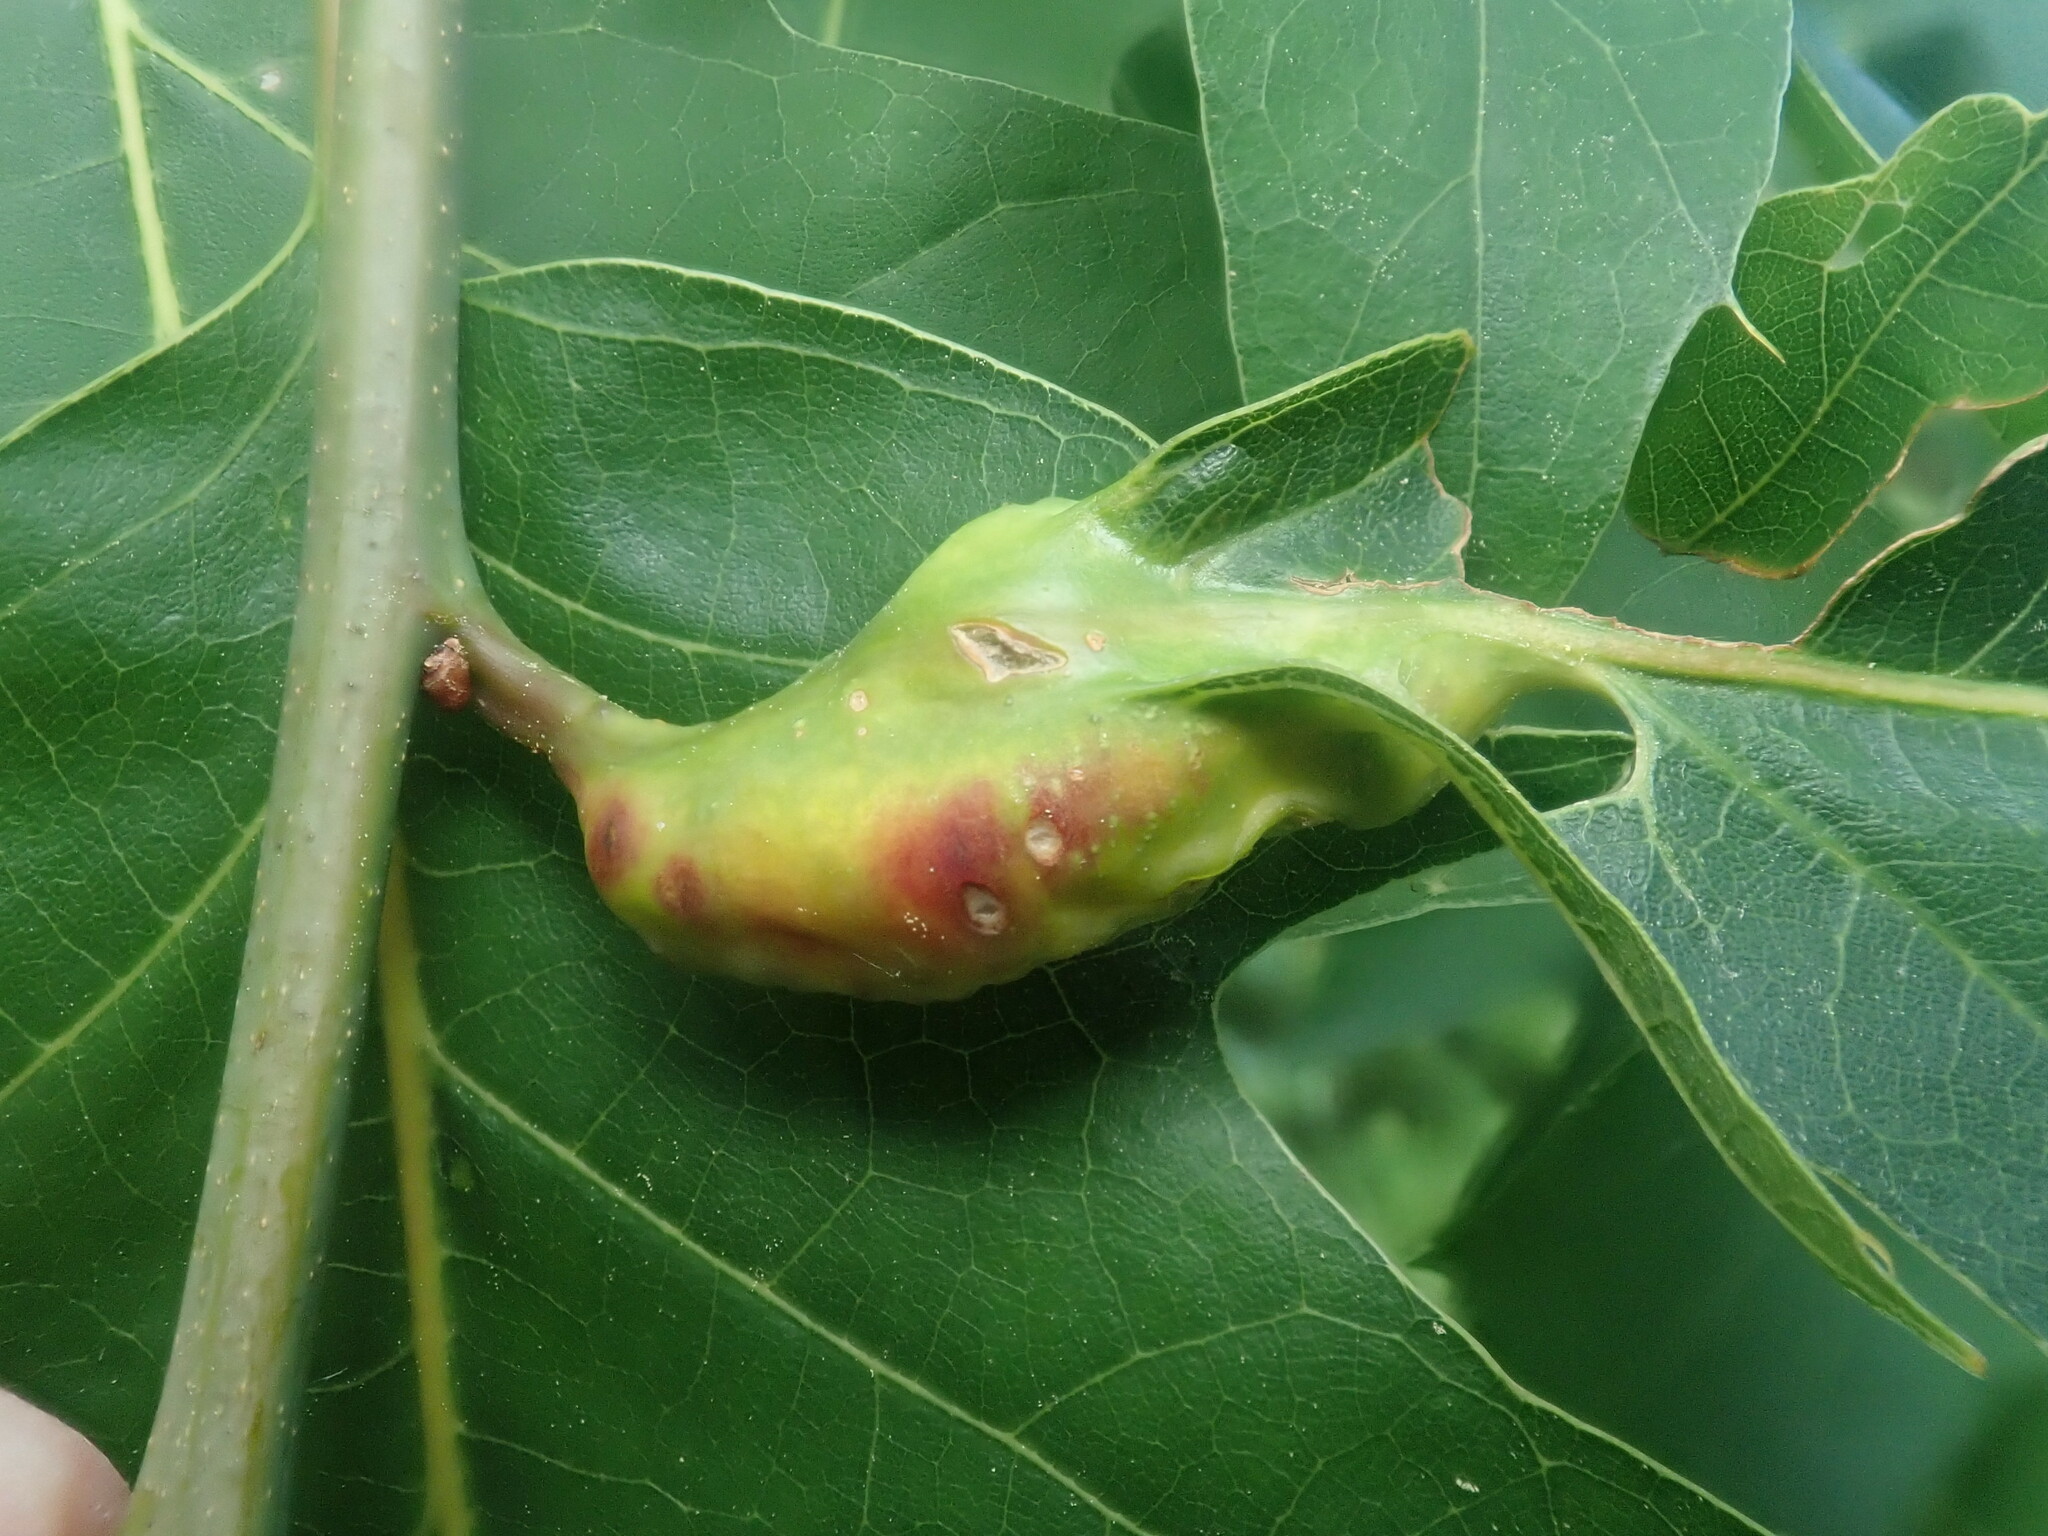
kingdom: Animalia
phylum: Arthropoda
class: Insecta
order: Hymenoptera
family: Cynipidae
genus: Melikaiella
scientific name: Melikaiella tumifica
